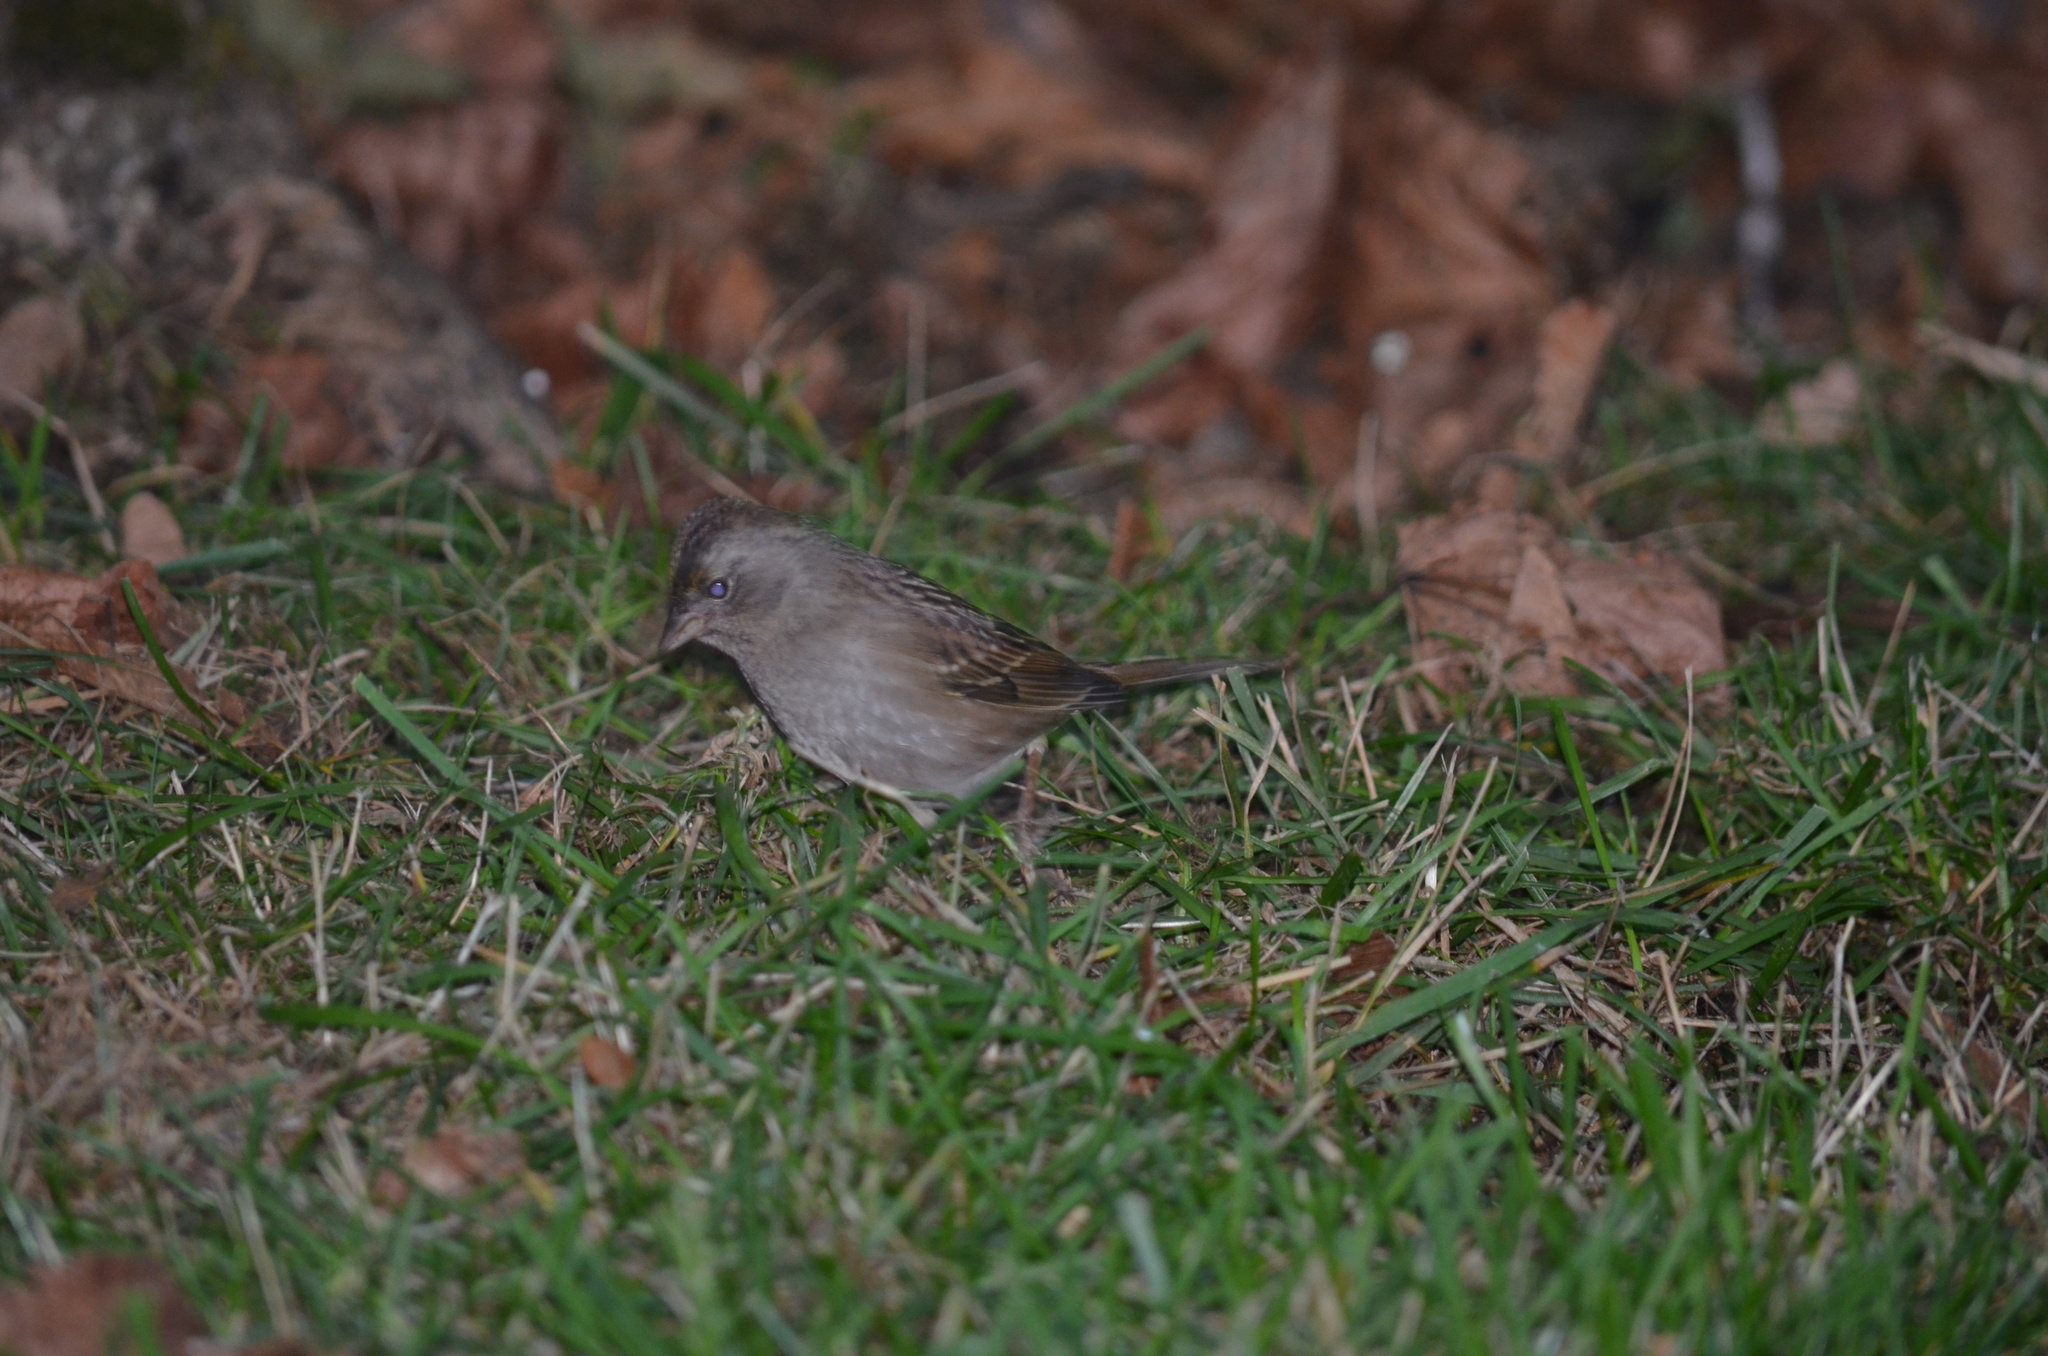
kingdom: Animalia
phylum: Chordata
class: Aves
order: Passeriformes
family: Passerellidae
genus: Zonotrichia
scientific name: Zonotrichia atricapilla
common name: Golden-crowned sparrow
